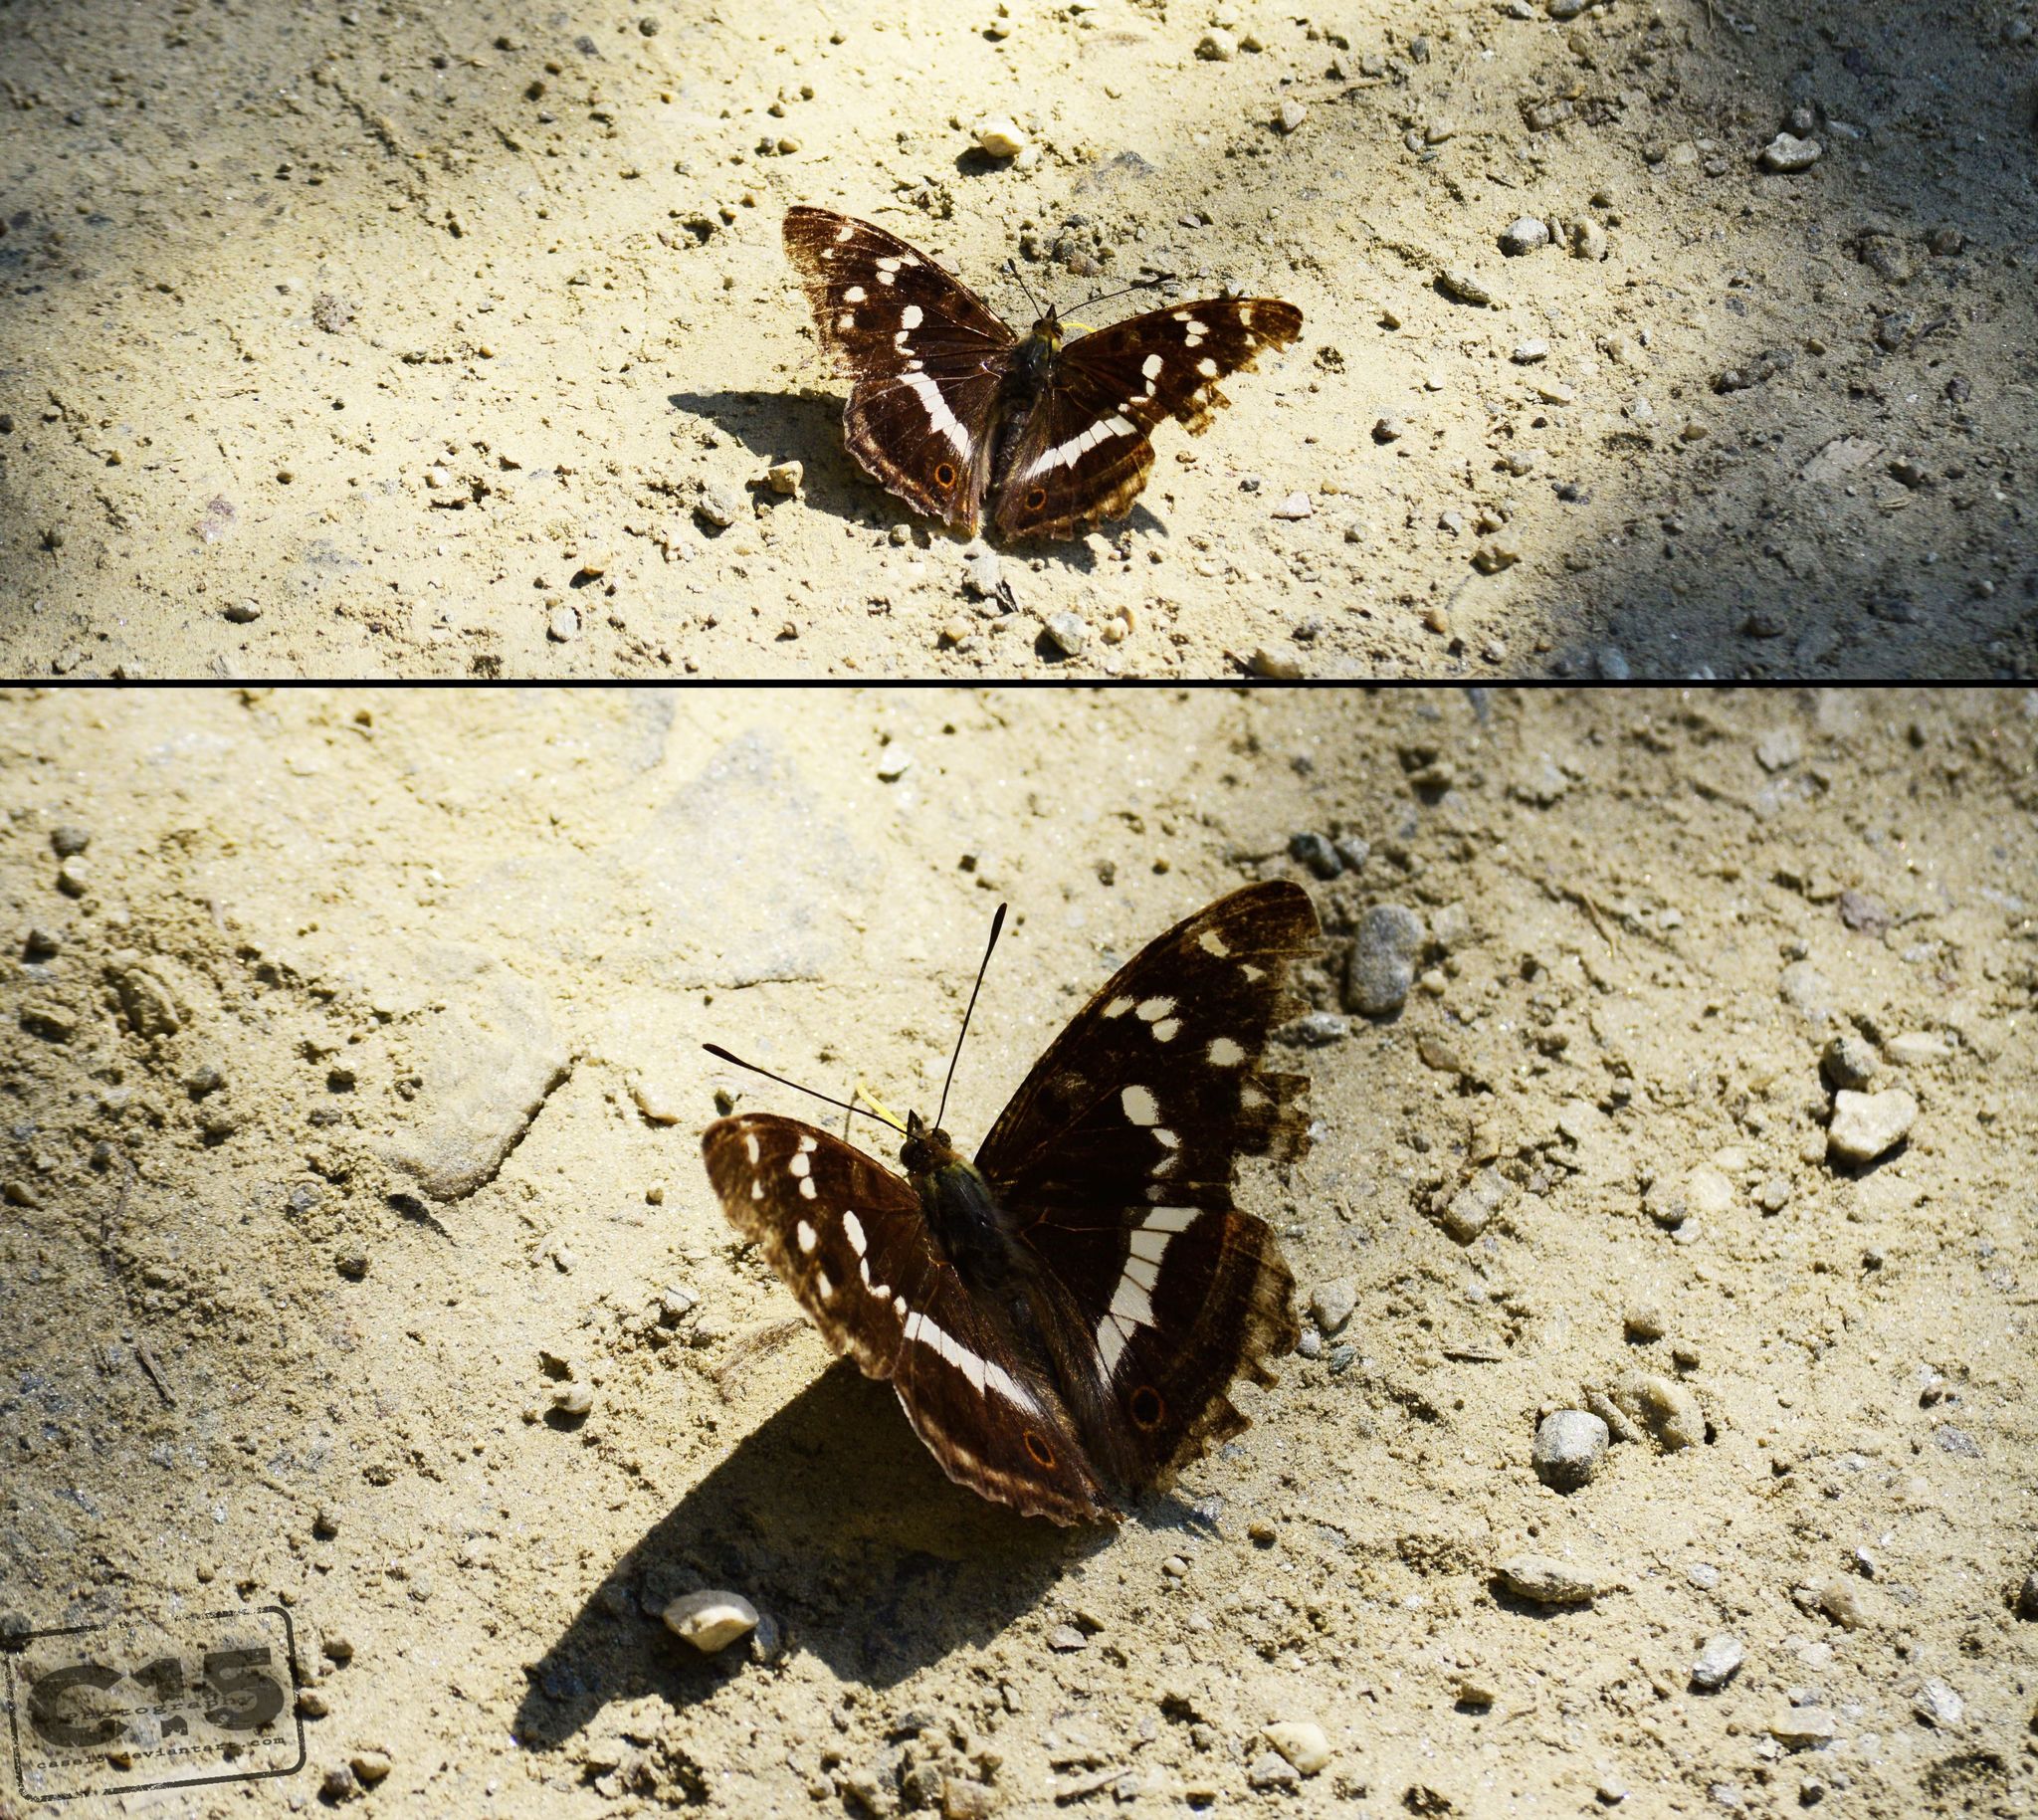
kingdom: Animalia
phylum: Arthropoda
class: Insecta
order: Lepidoptera
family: Nymphalidae
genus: Apatura
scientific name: Apatura iris
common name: Purple emperor
